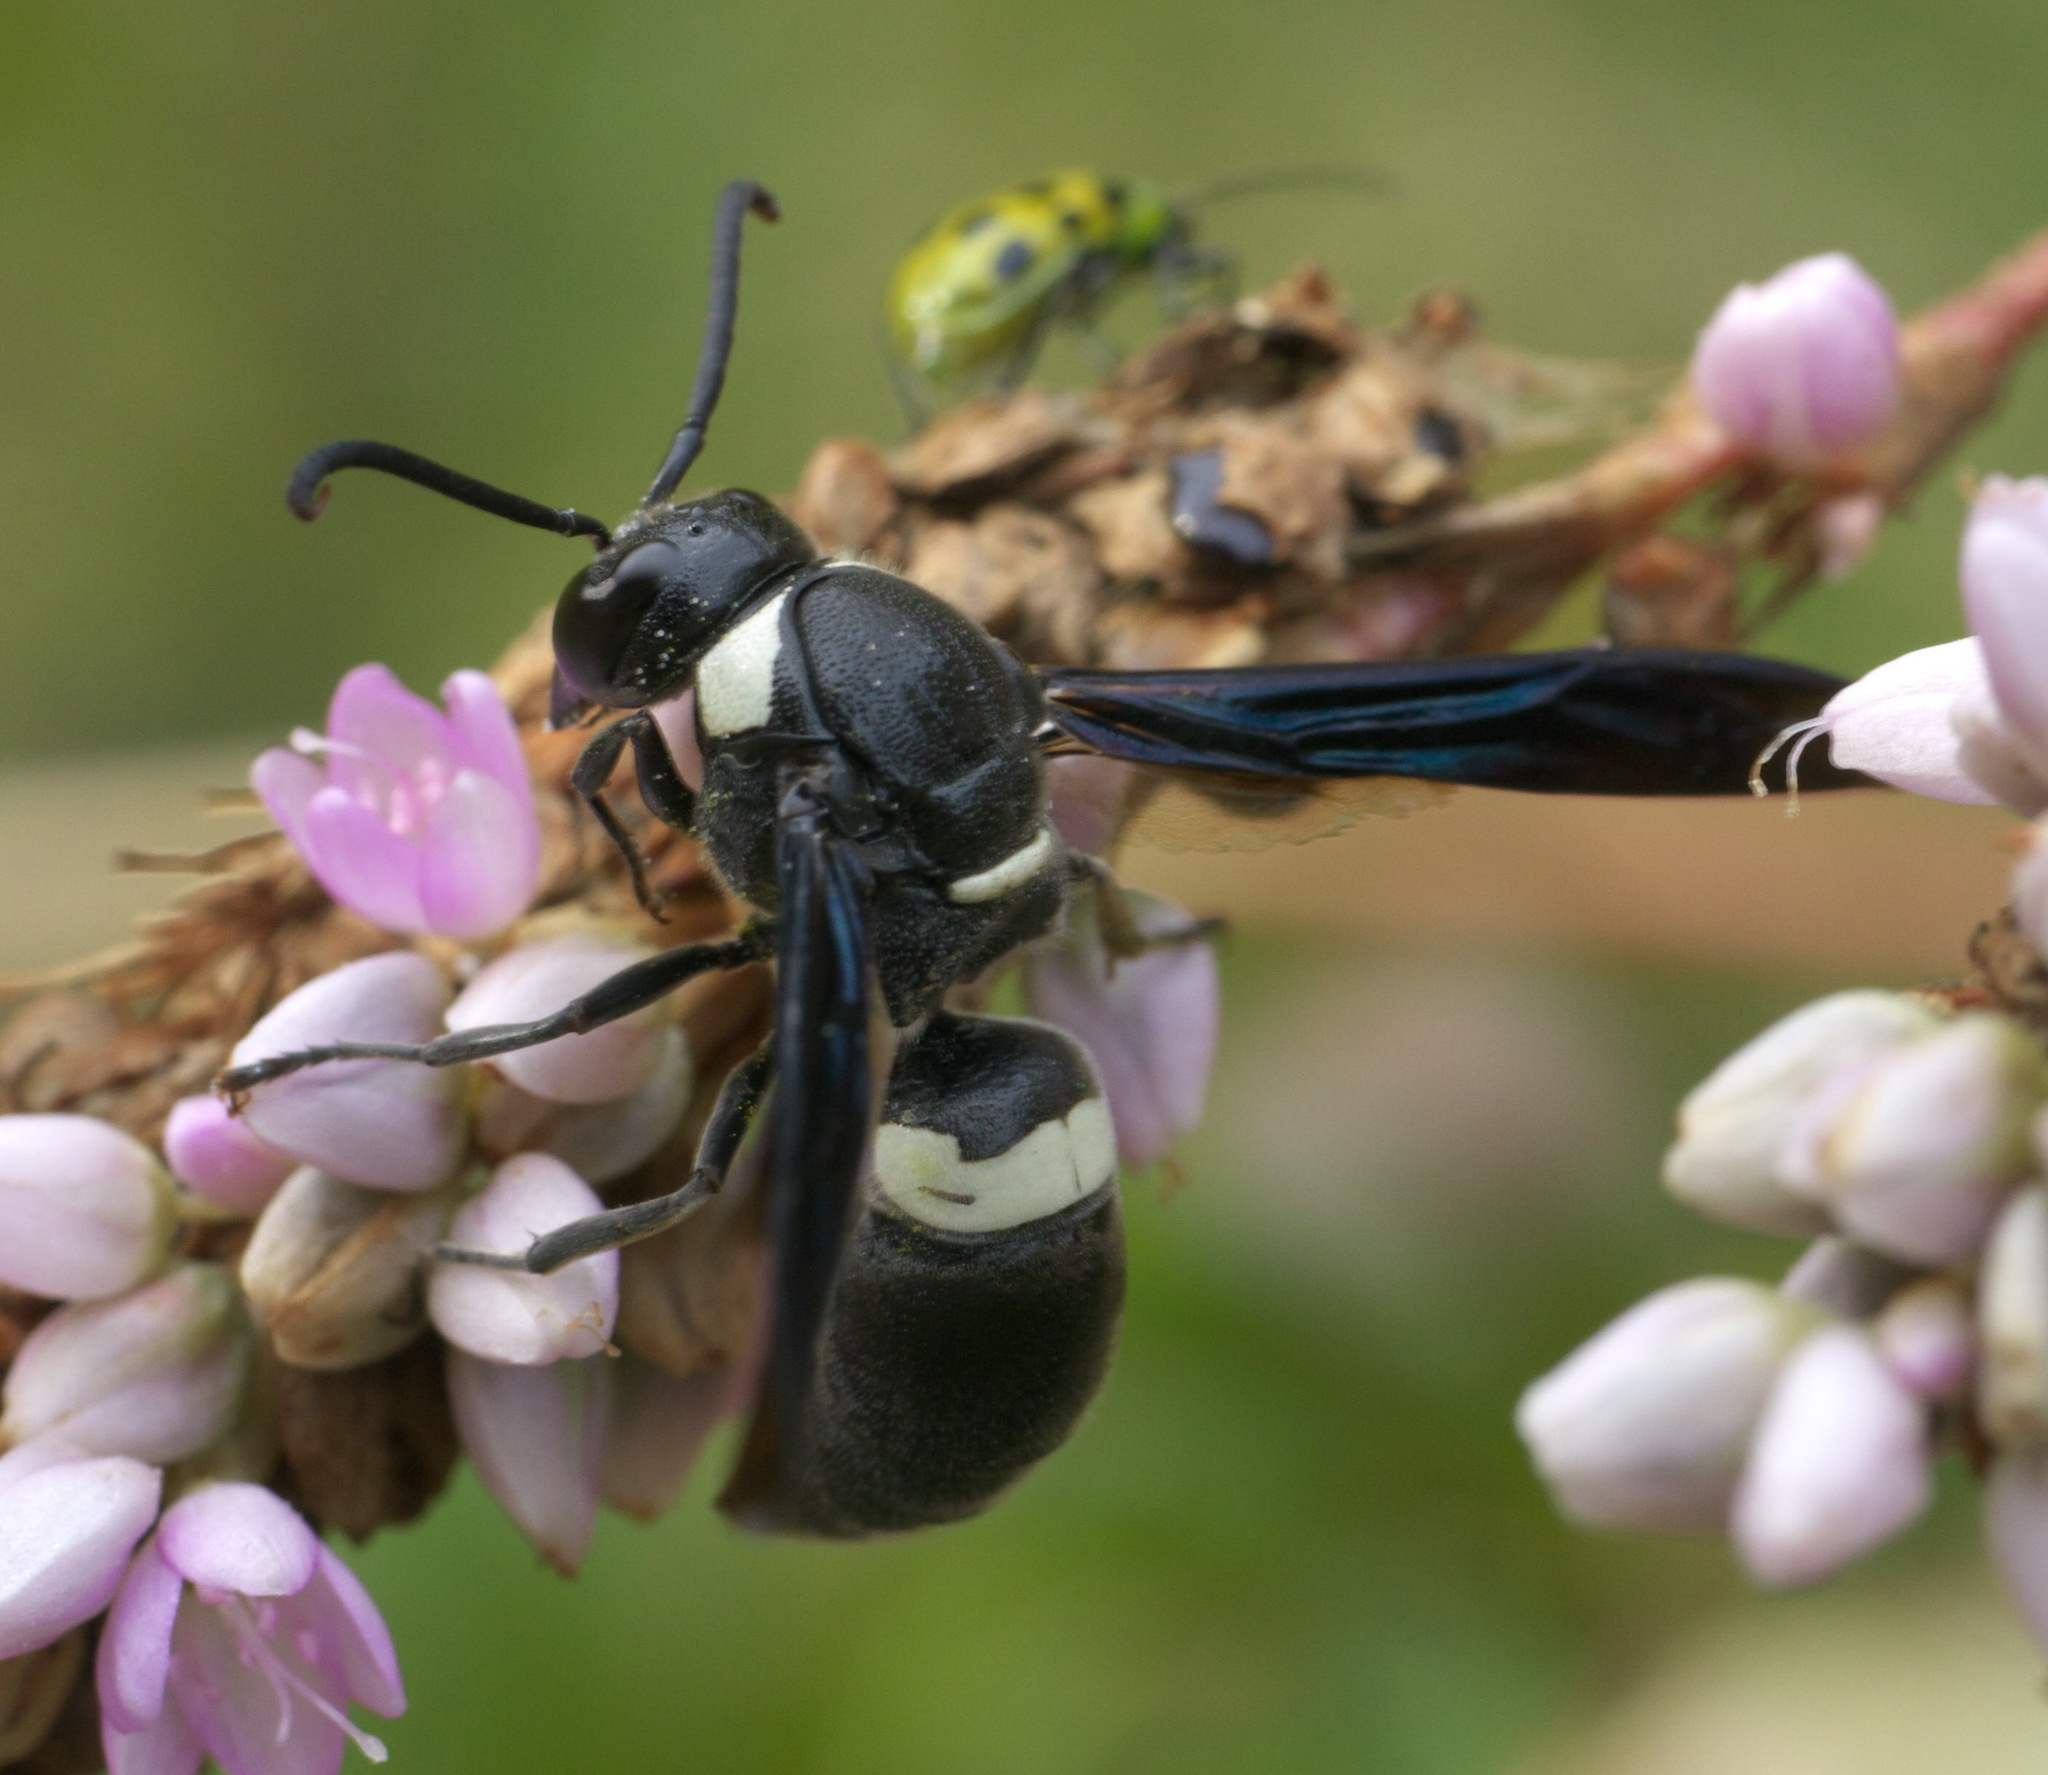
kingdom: Animalia
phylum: Arthropoda
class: Insecta
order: Hymenoptera
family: Eumenidae
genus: Monobia
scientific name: Monobia quadridens
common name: Four-toothed mason wasp
